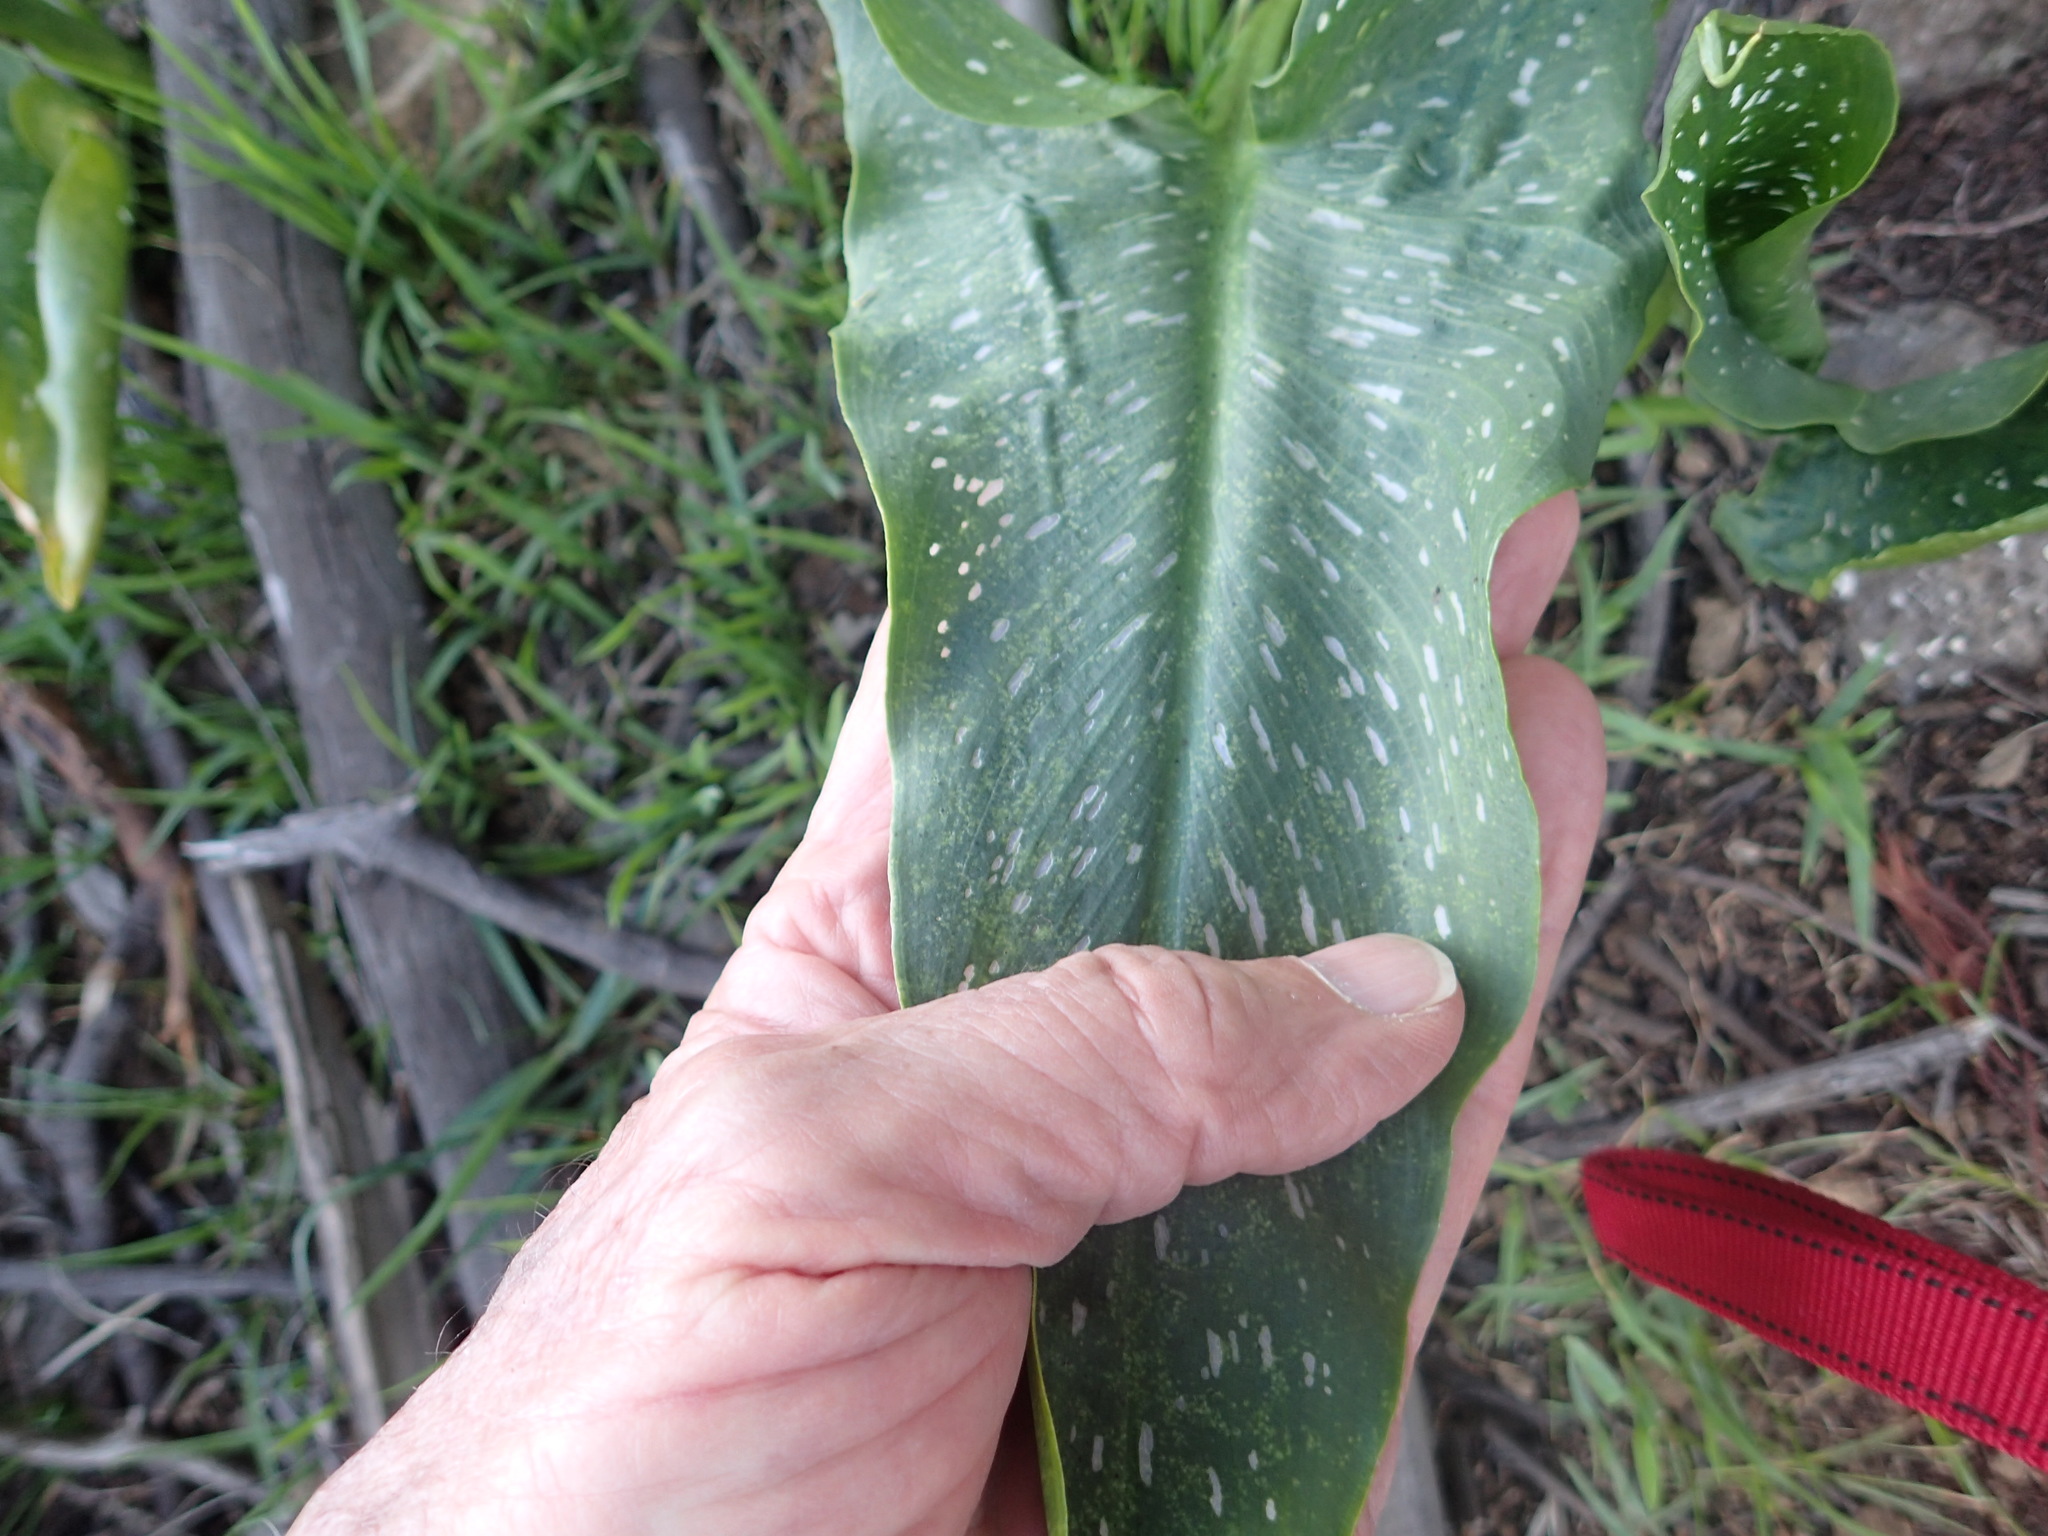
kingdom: Plantae
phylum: Tracheophyta
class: Liliopsida
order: Alismatales
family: Araceae
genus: Zantedeschia
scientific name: Zantedeschia albomaculata
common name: Spotted calla lily
